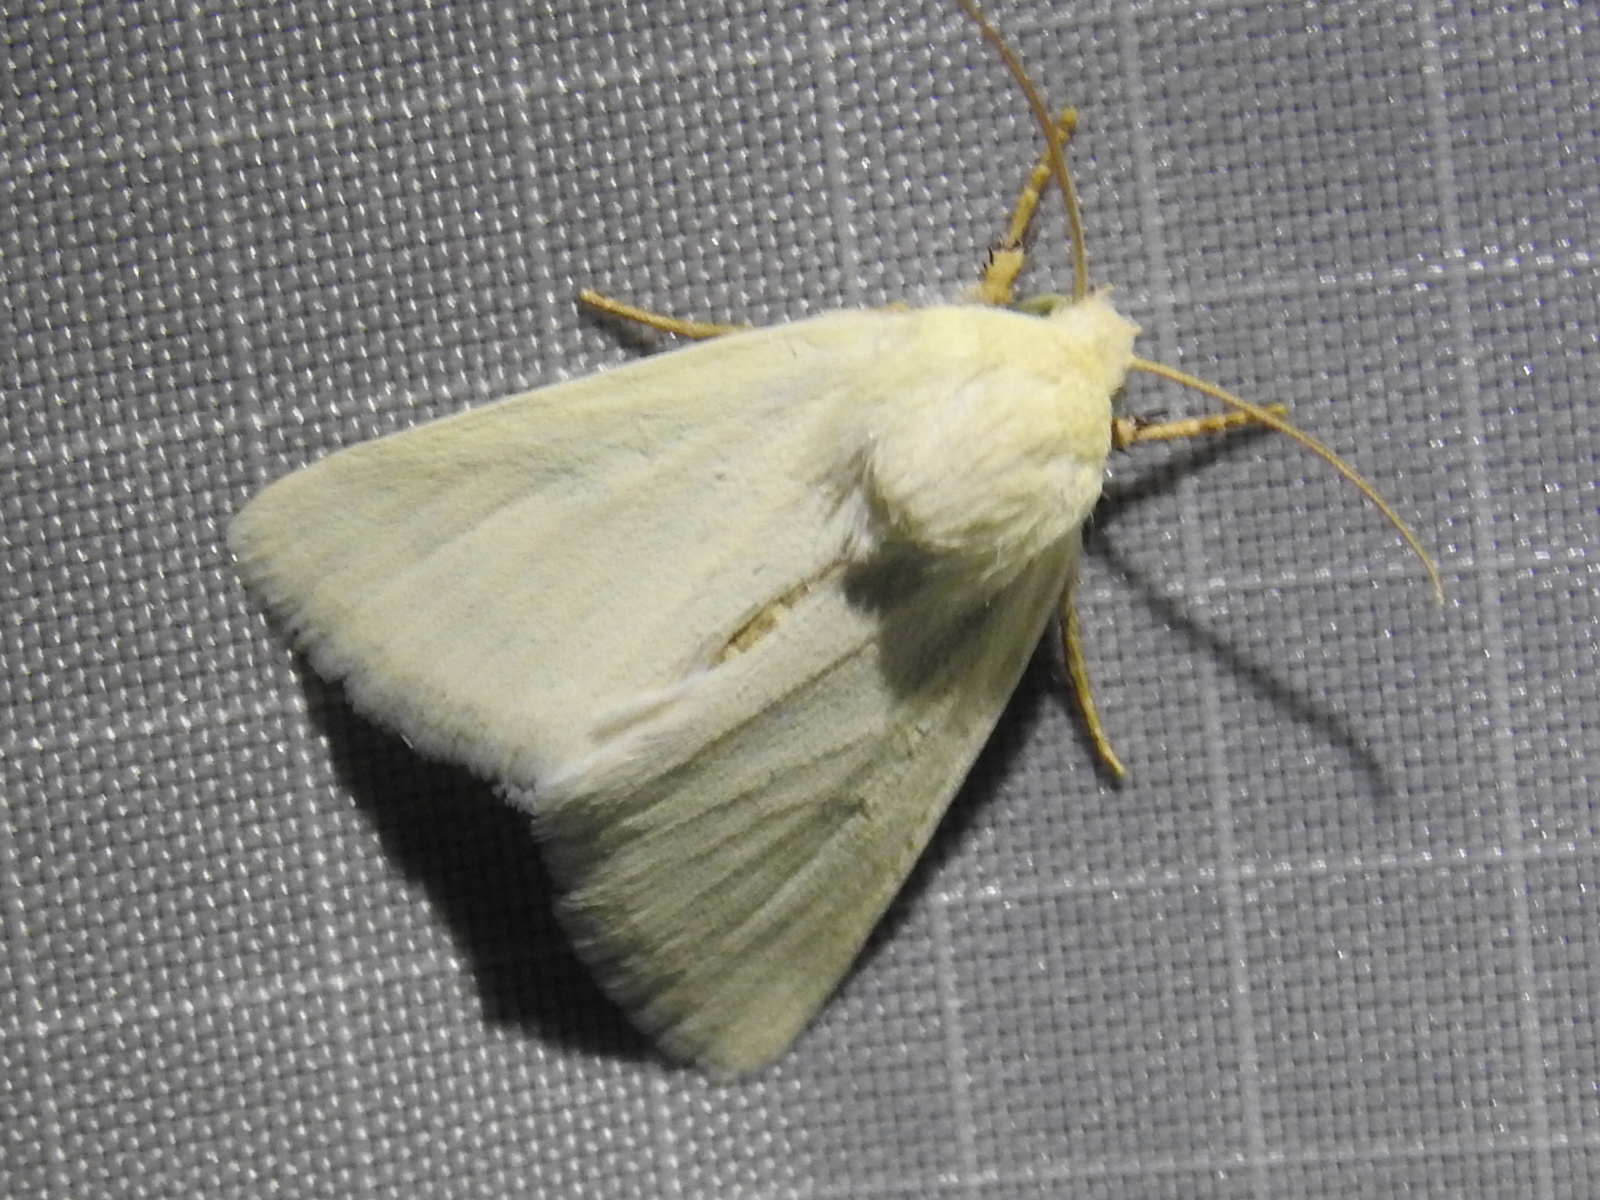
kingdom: Animalia
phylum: Arthropoda
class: Insecta
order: Lepidoptera
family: Noctuidae
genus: Schinia
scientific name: Schinia citrinellus
